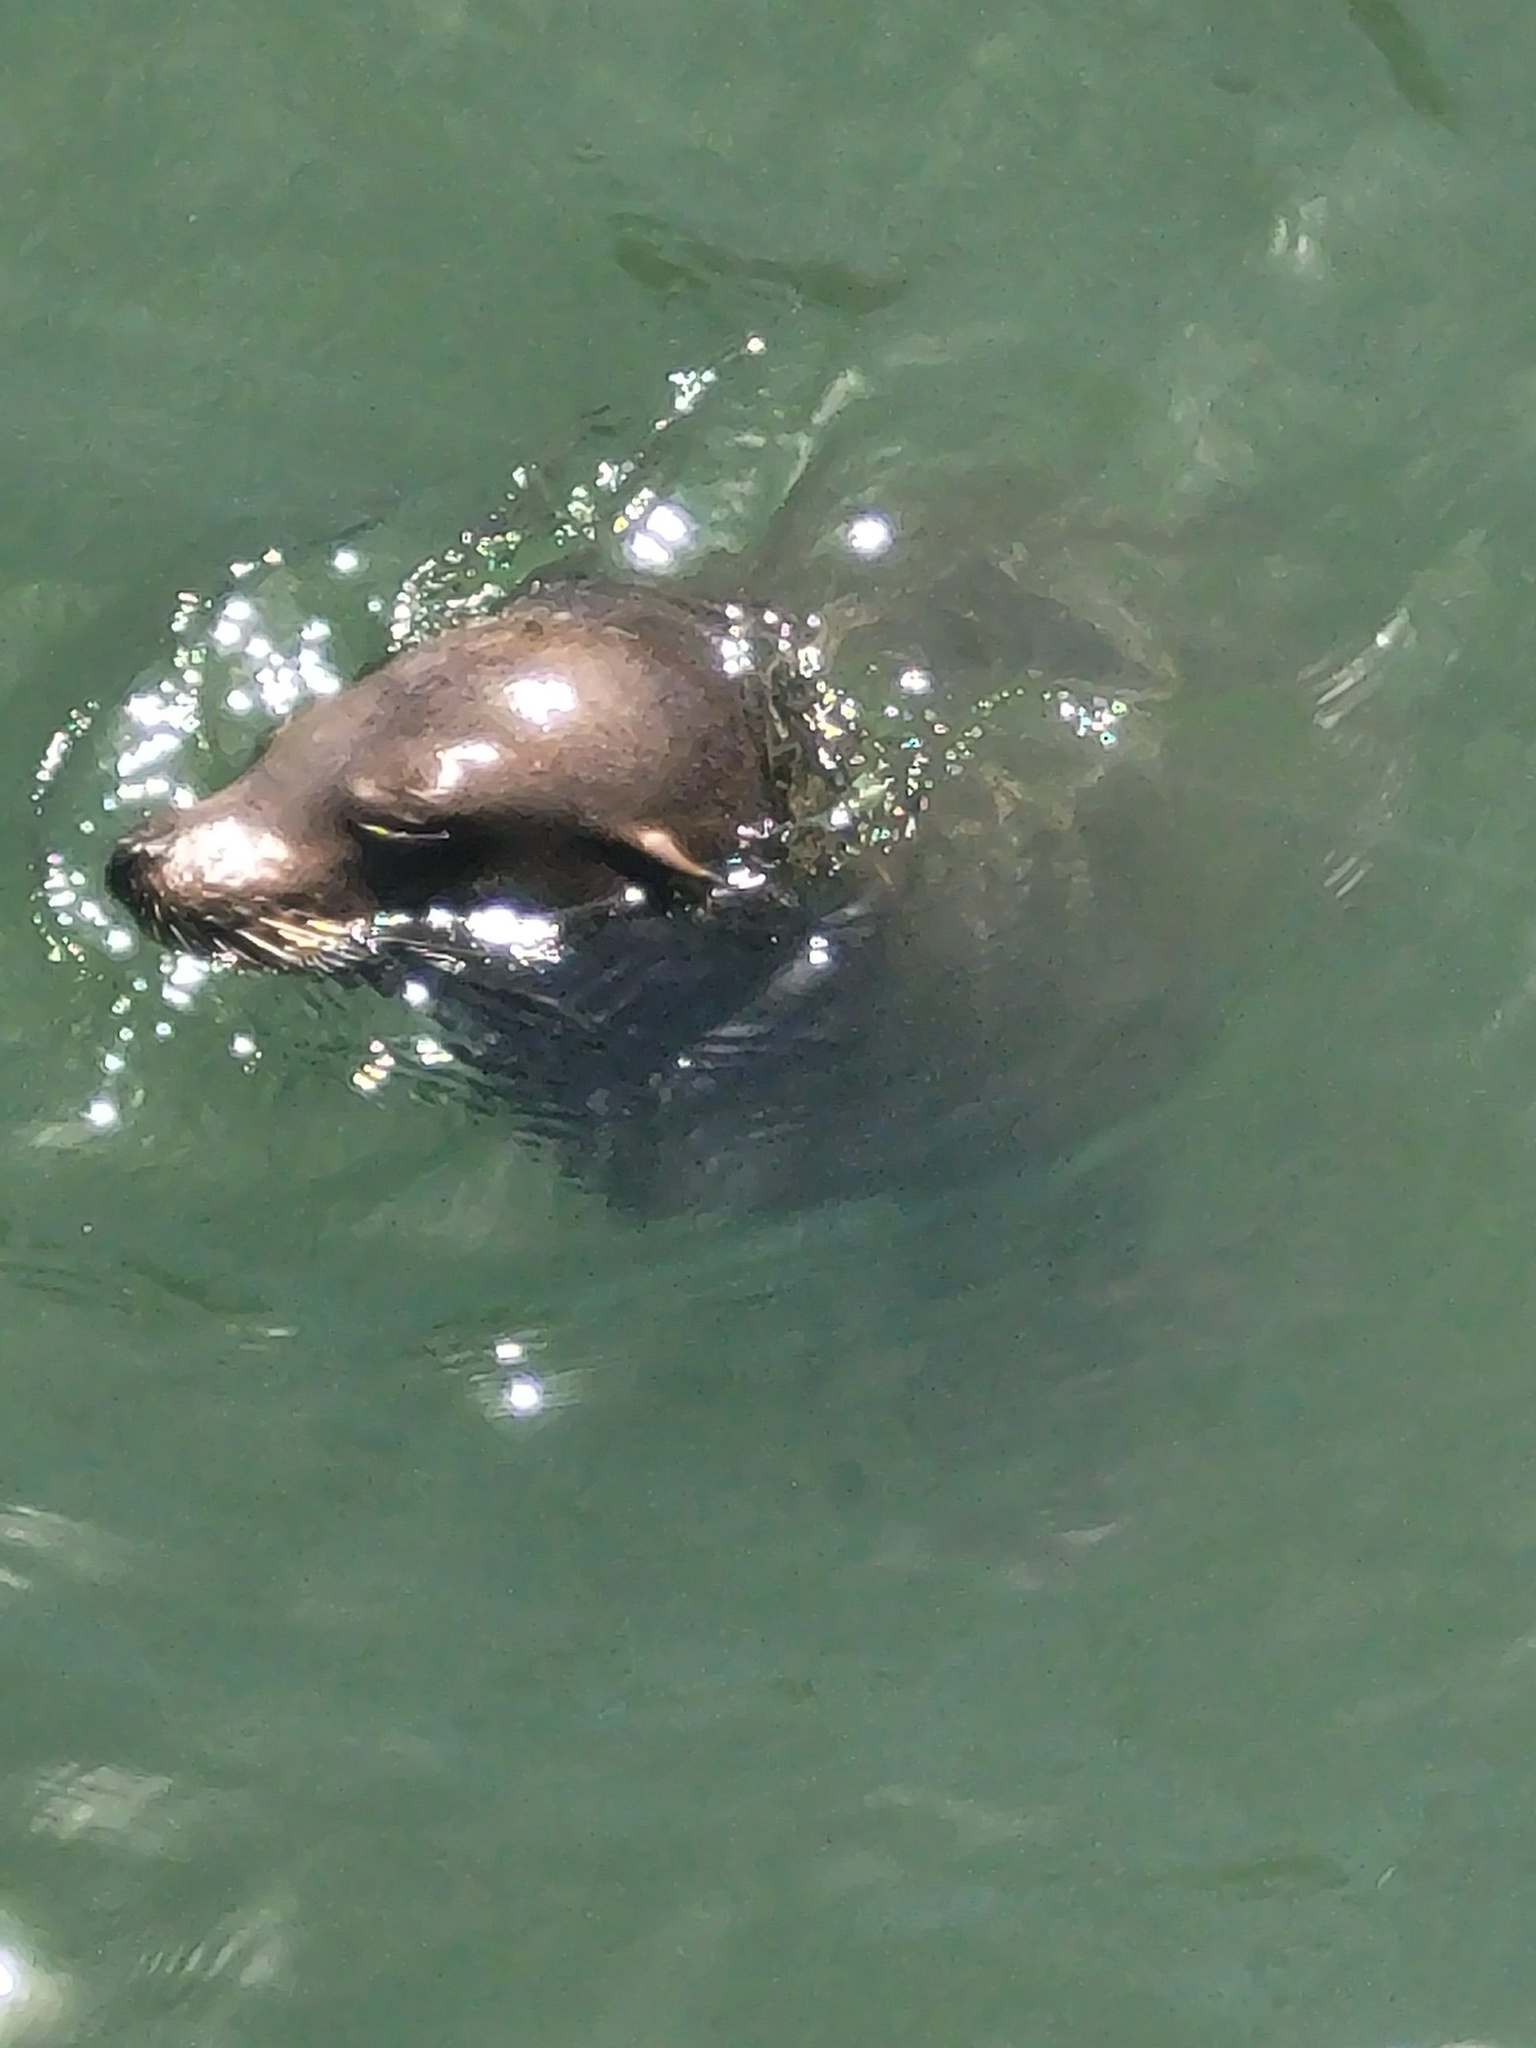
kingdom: Animalia
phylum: Chordata
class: Mammalia
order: Carnivora
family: Otariidae
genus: Zalophus
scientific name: Zalophus californianus
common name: California sea lion
